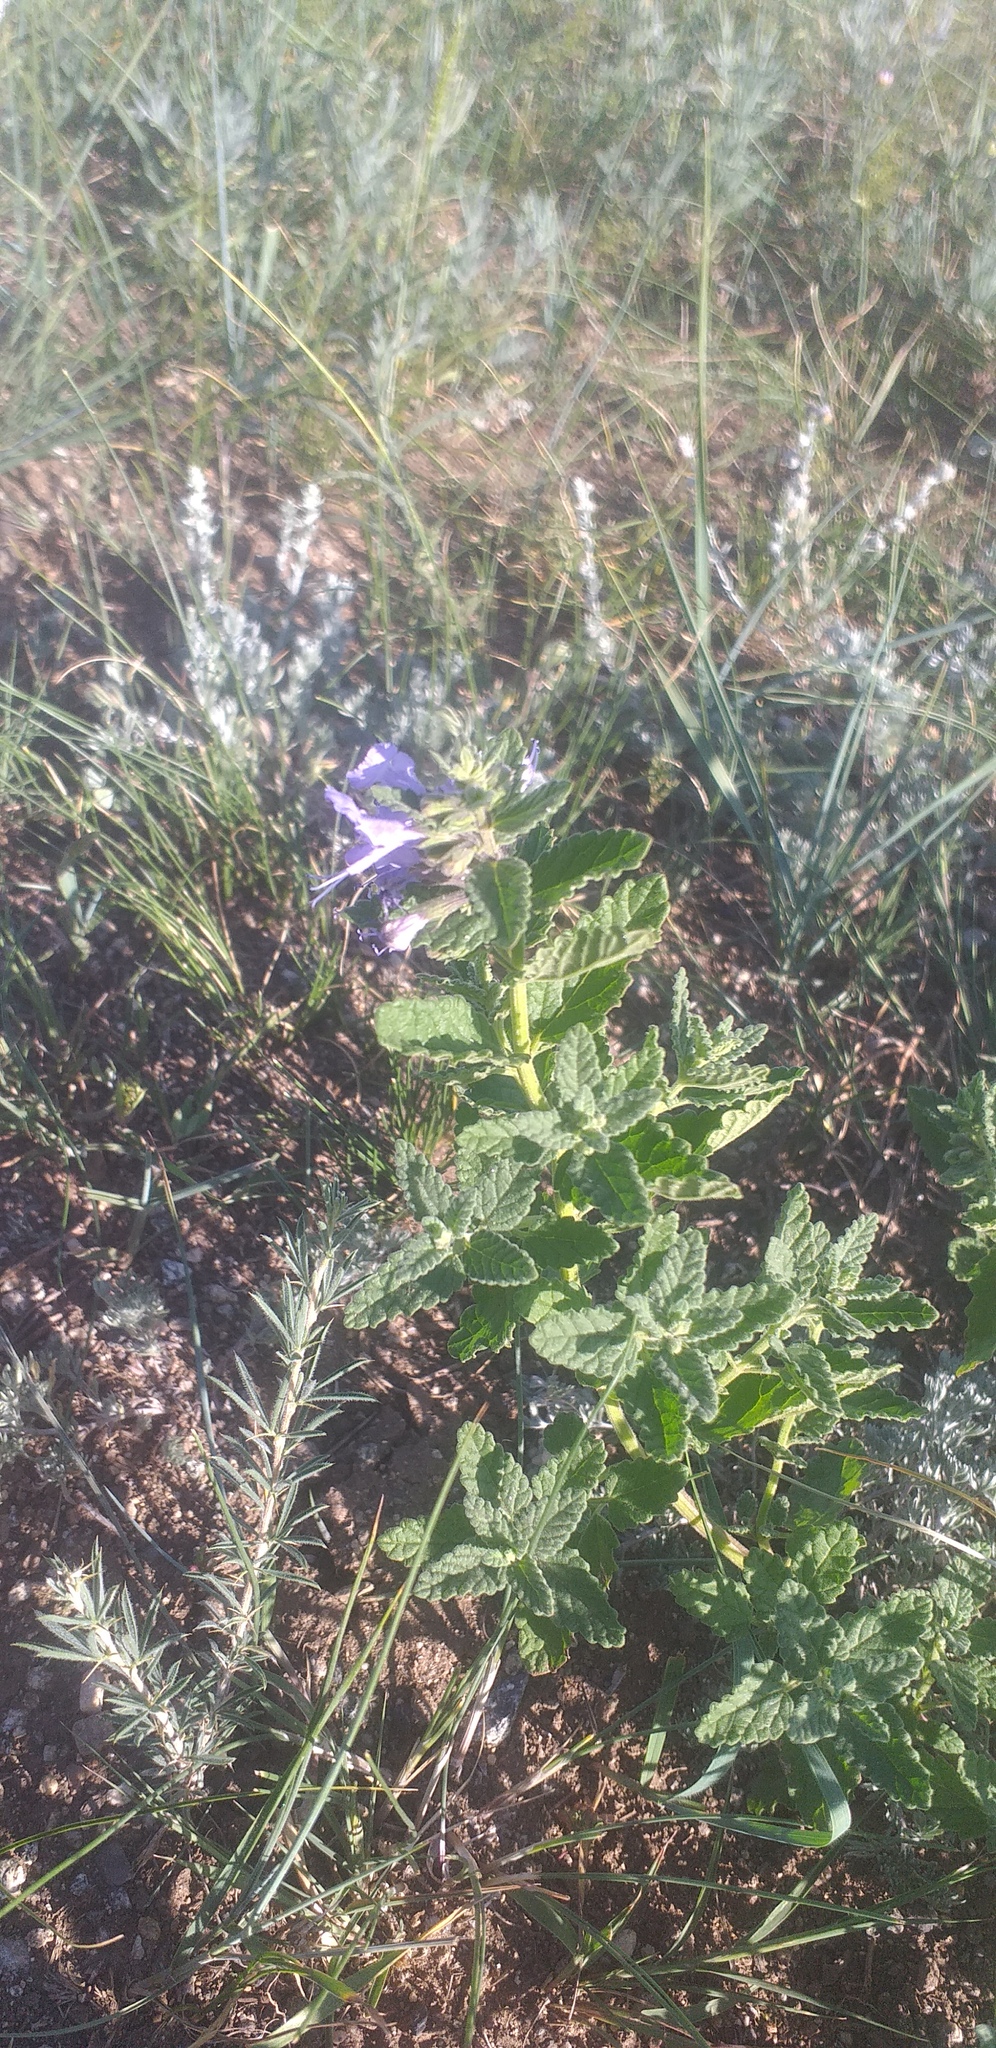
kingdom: Plantae
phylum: Tracheophyta
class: Magnoliopsida
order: Lamiales
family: Lamiaceae
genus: Nepeta
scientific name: Nepeta lophanthus
